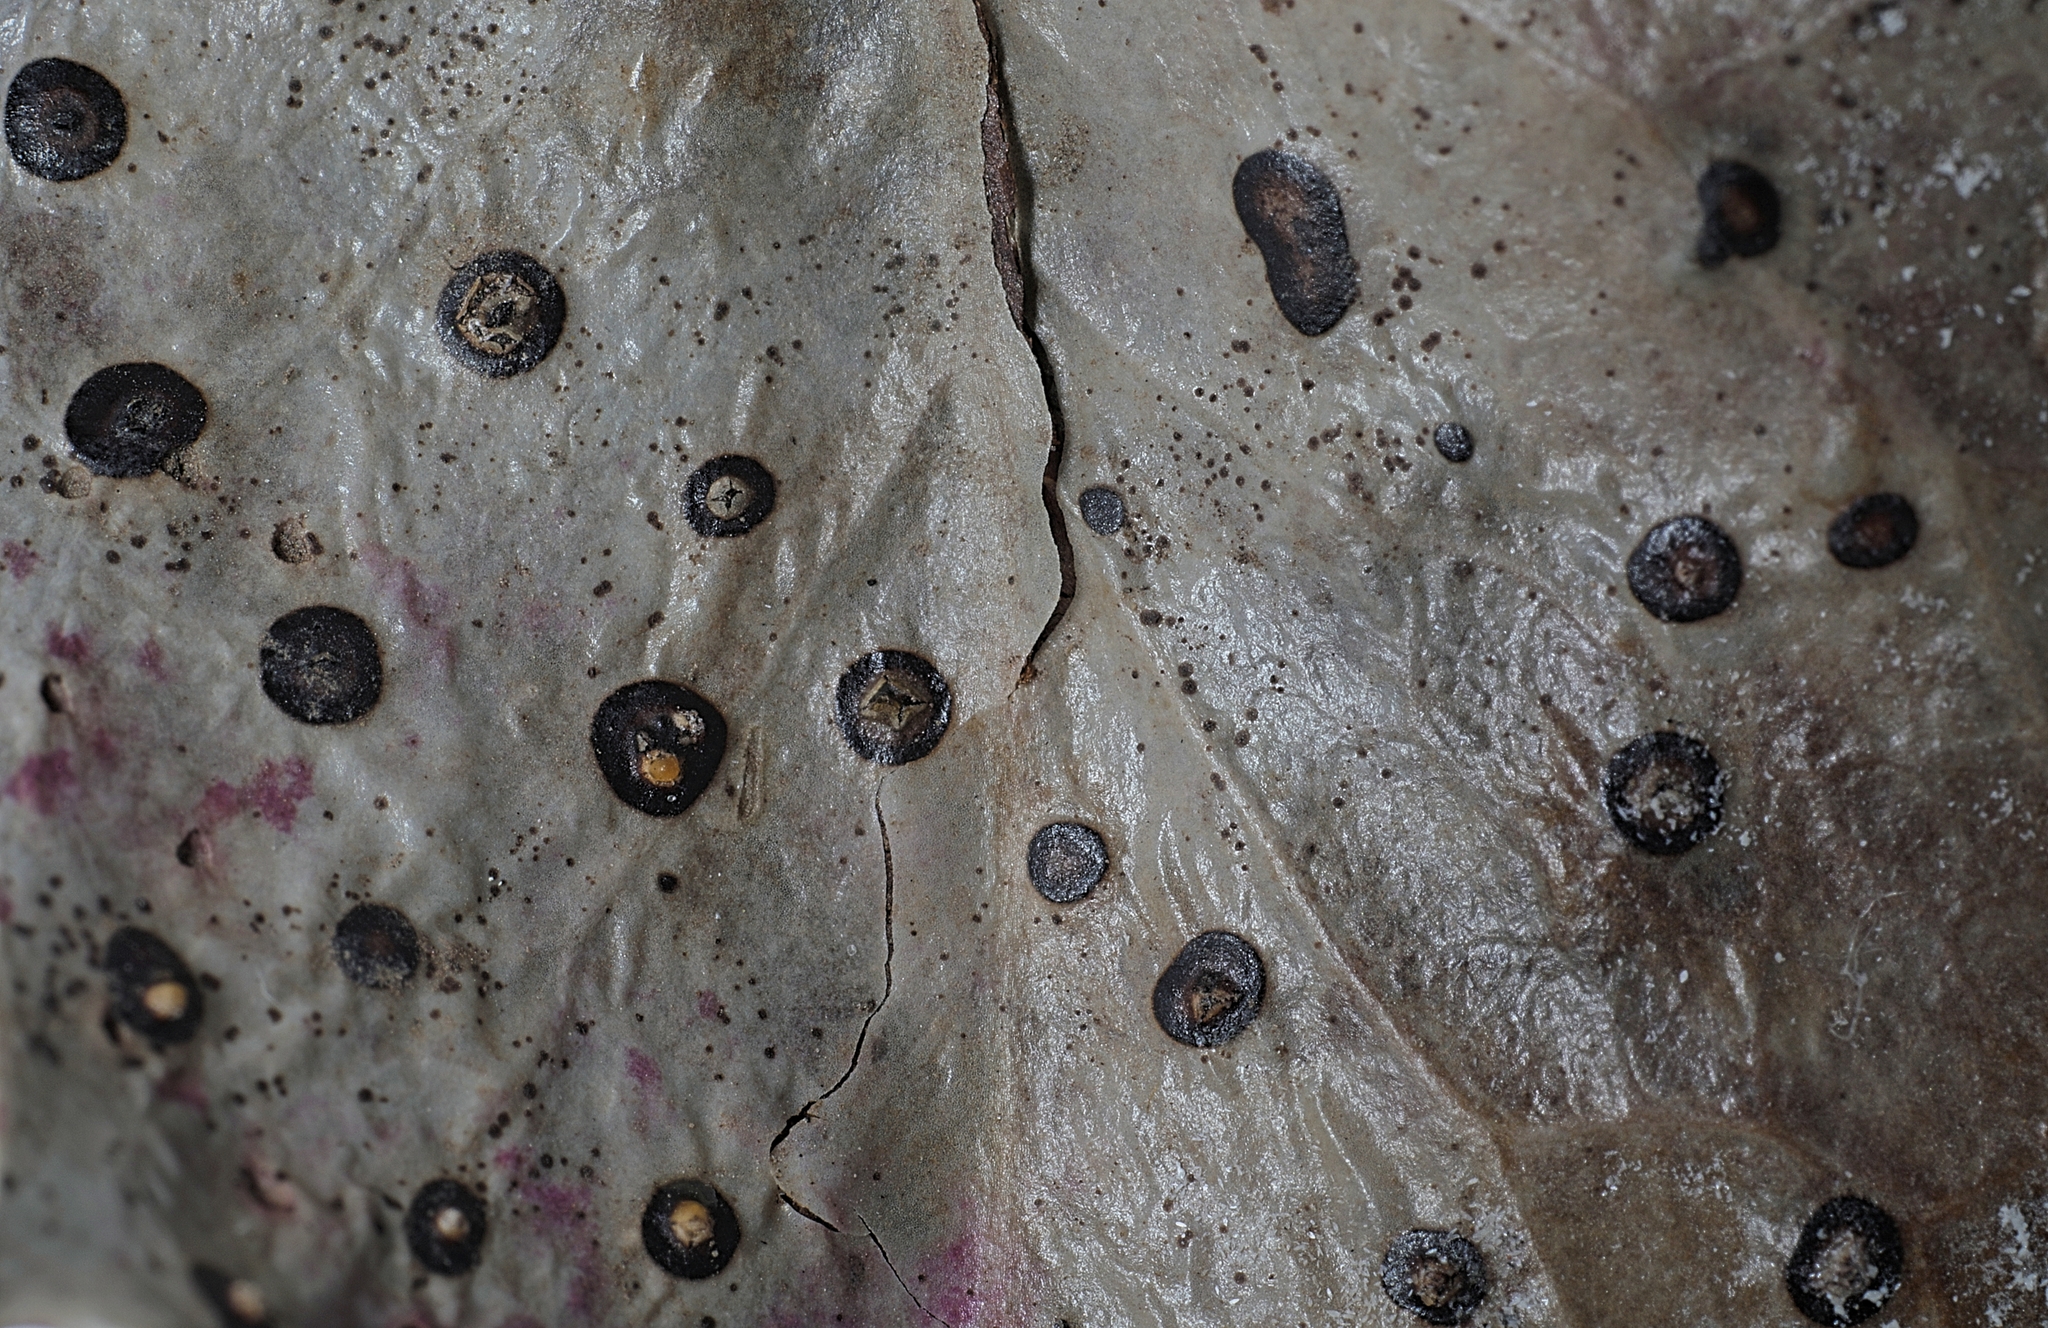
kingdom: Fungi
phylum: Ascomycota
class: Leotiomycetes
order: Phacidiales
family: Phacidiaceae
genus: Phacidium
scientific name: Phacidium lauri
